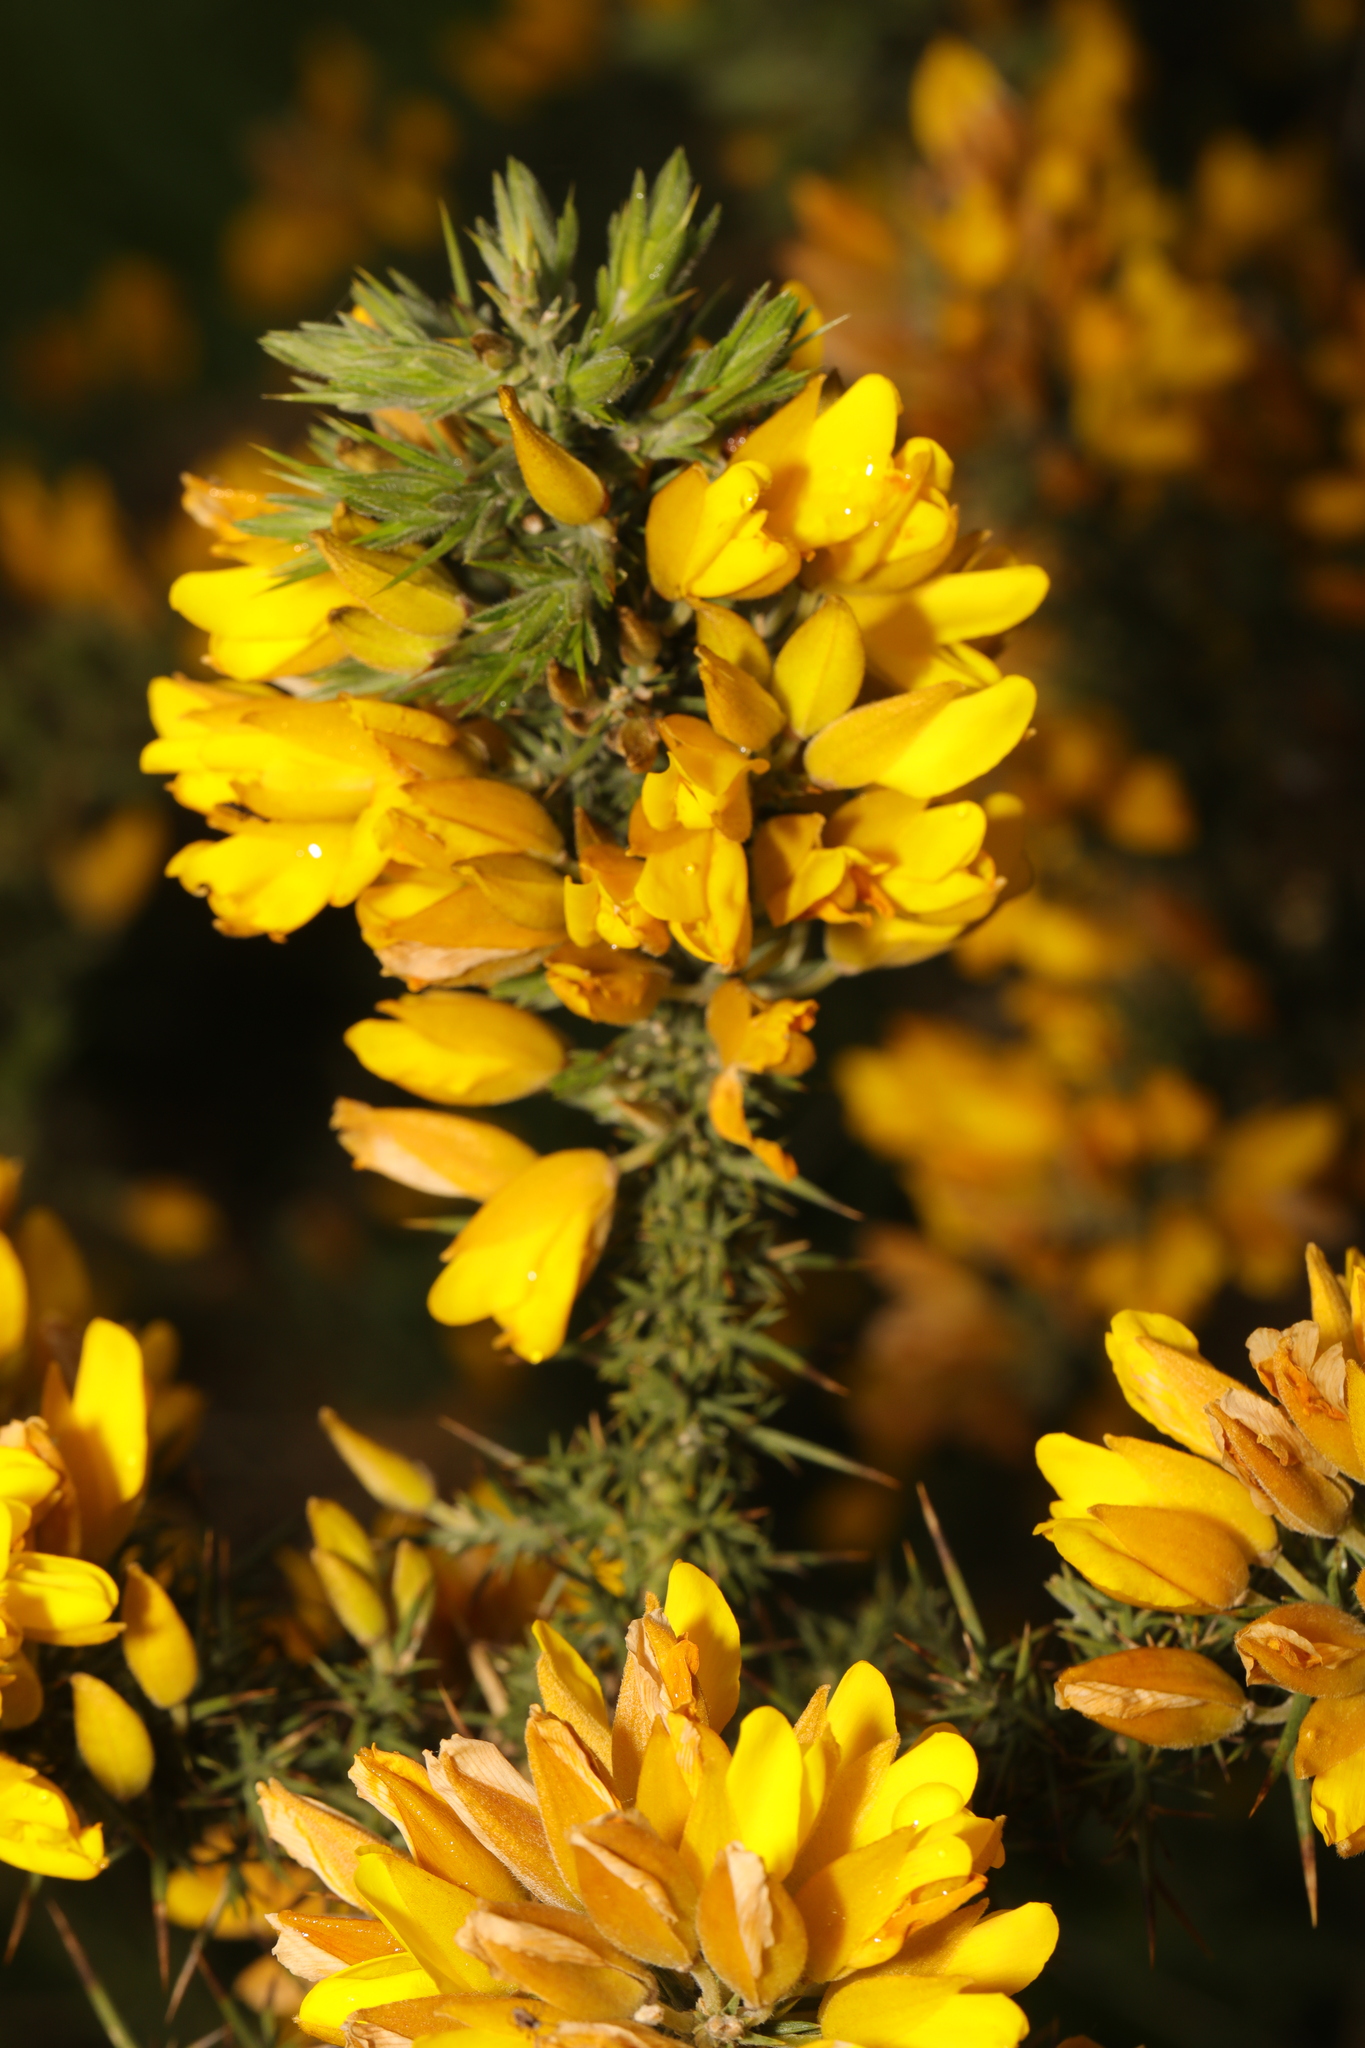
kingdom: Plantae
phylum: Tracheophyta
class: Magnoliopsida
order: Fabales
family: Fabaceae
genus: Ulex
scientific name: Ulex europaeus
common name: Common gorse
